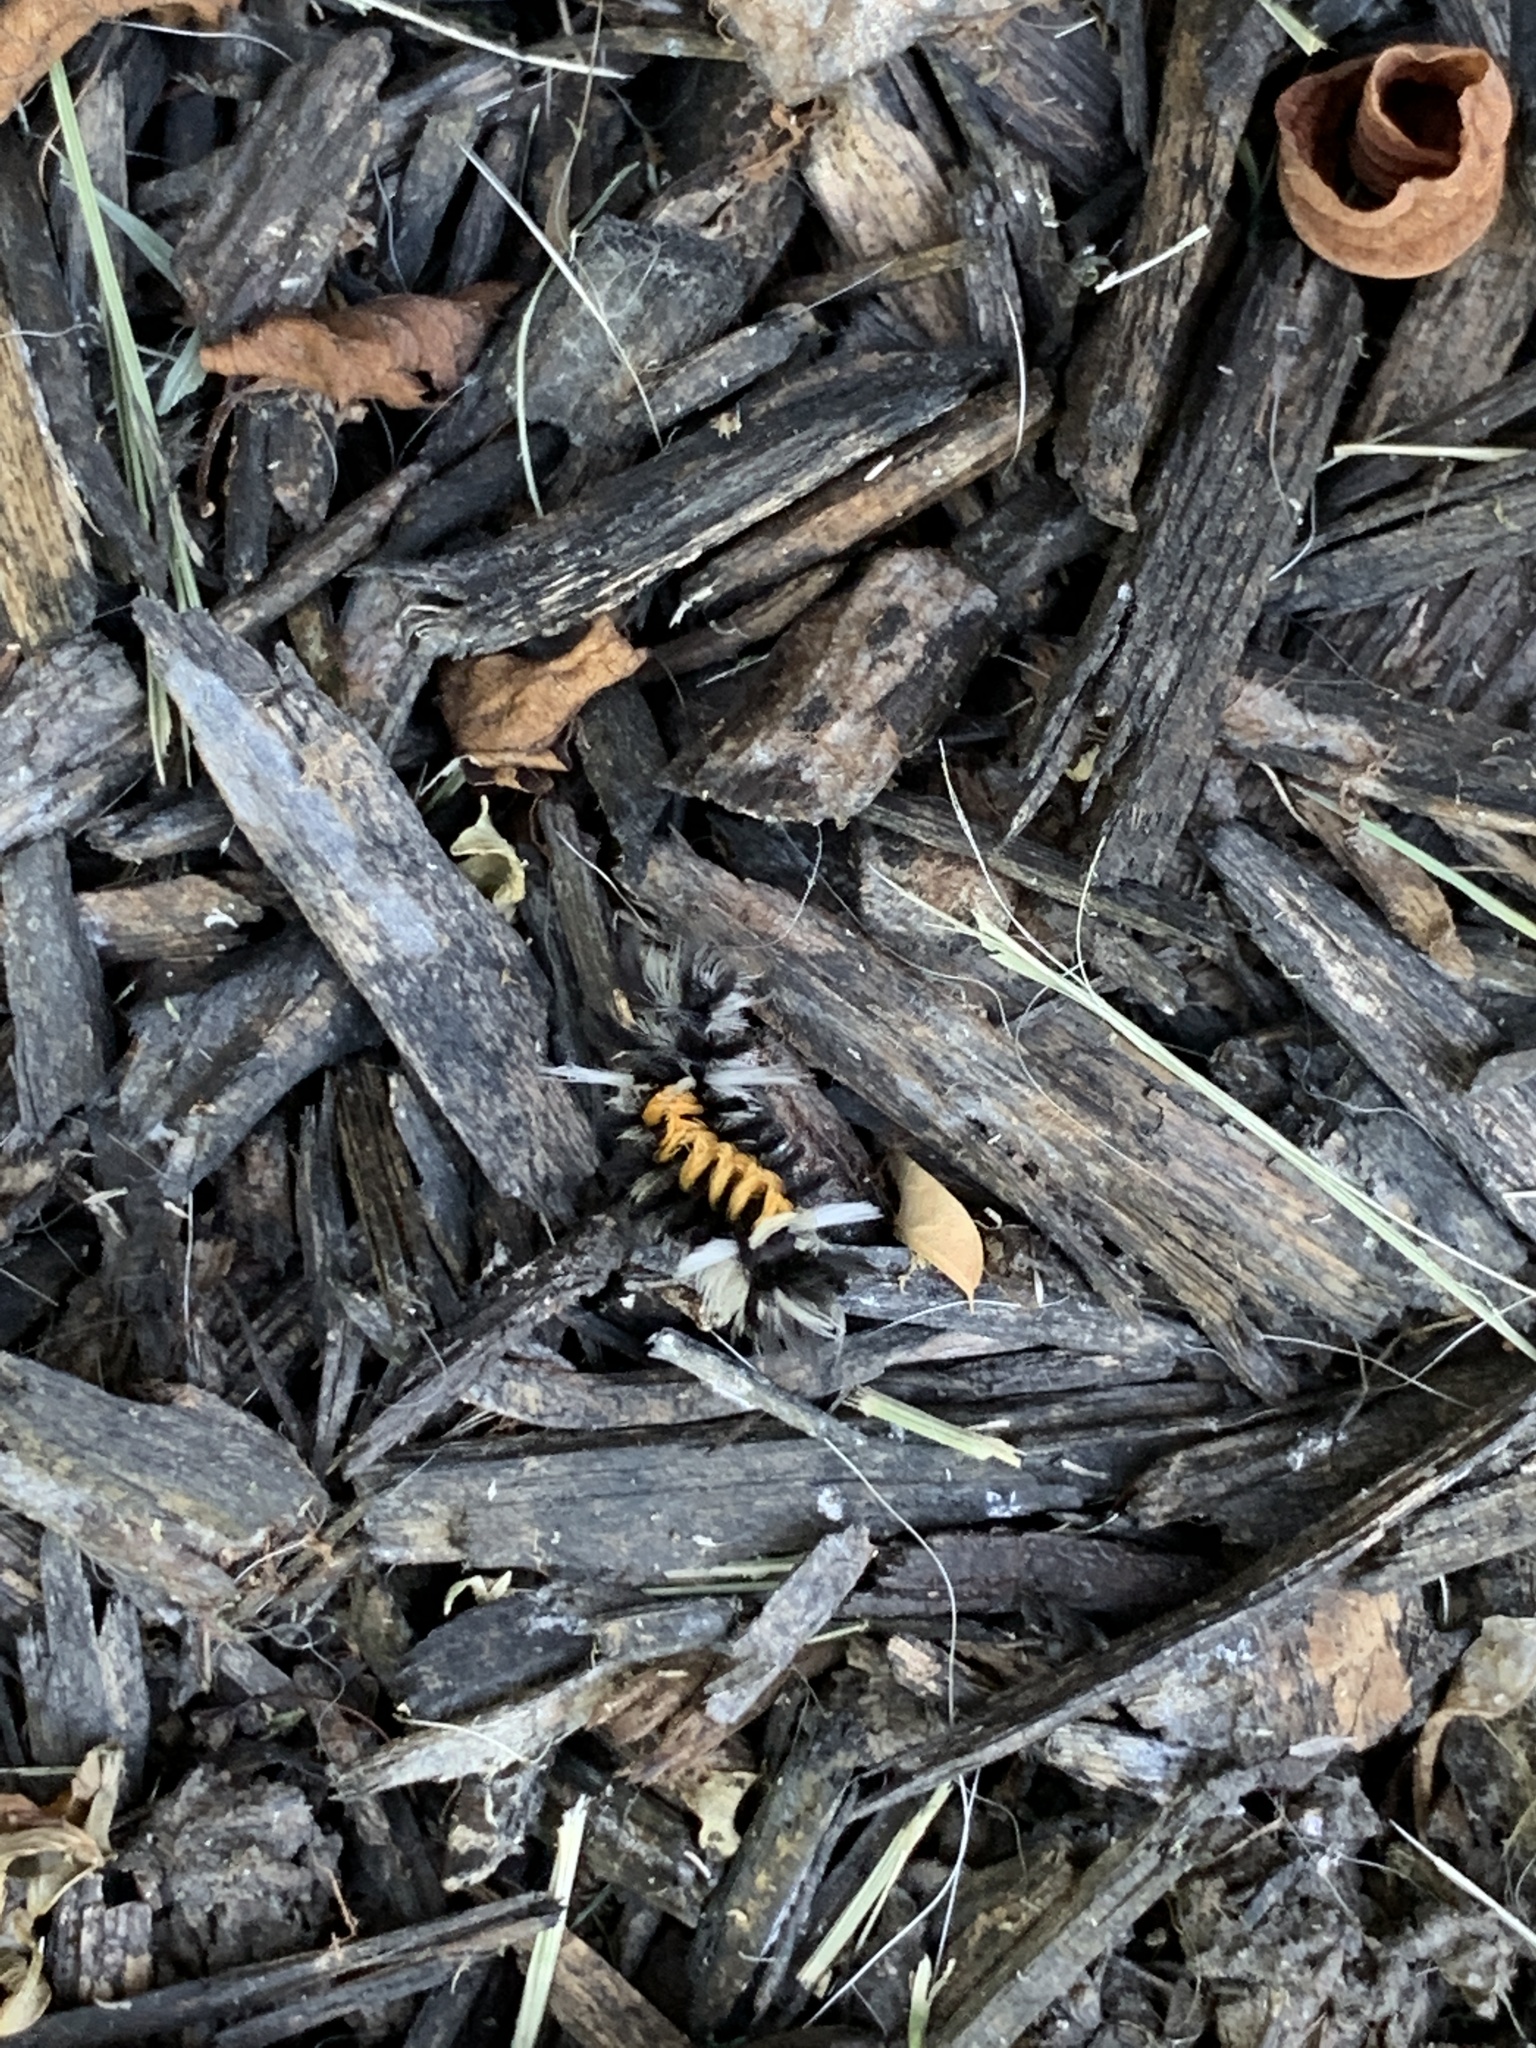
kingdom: Animalia
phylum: Arthropoda
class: Insecta
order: Lepidoptera
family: Erebidae
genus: Euchaetes
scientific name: Euchaetes egle
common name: Milkweed tussock moth
